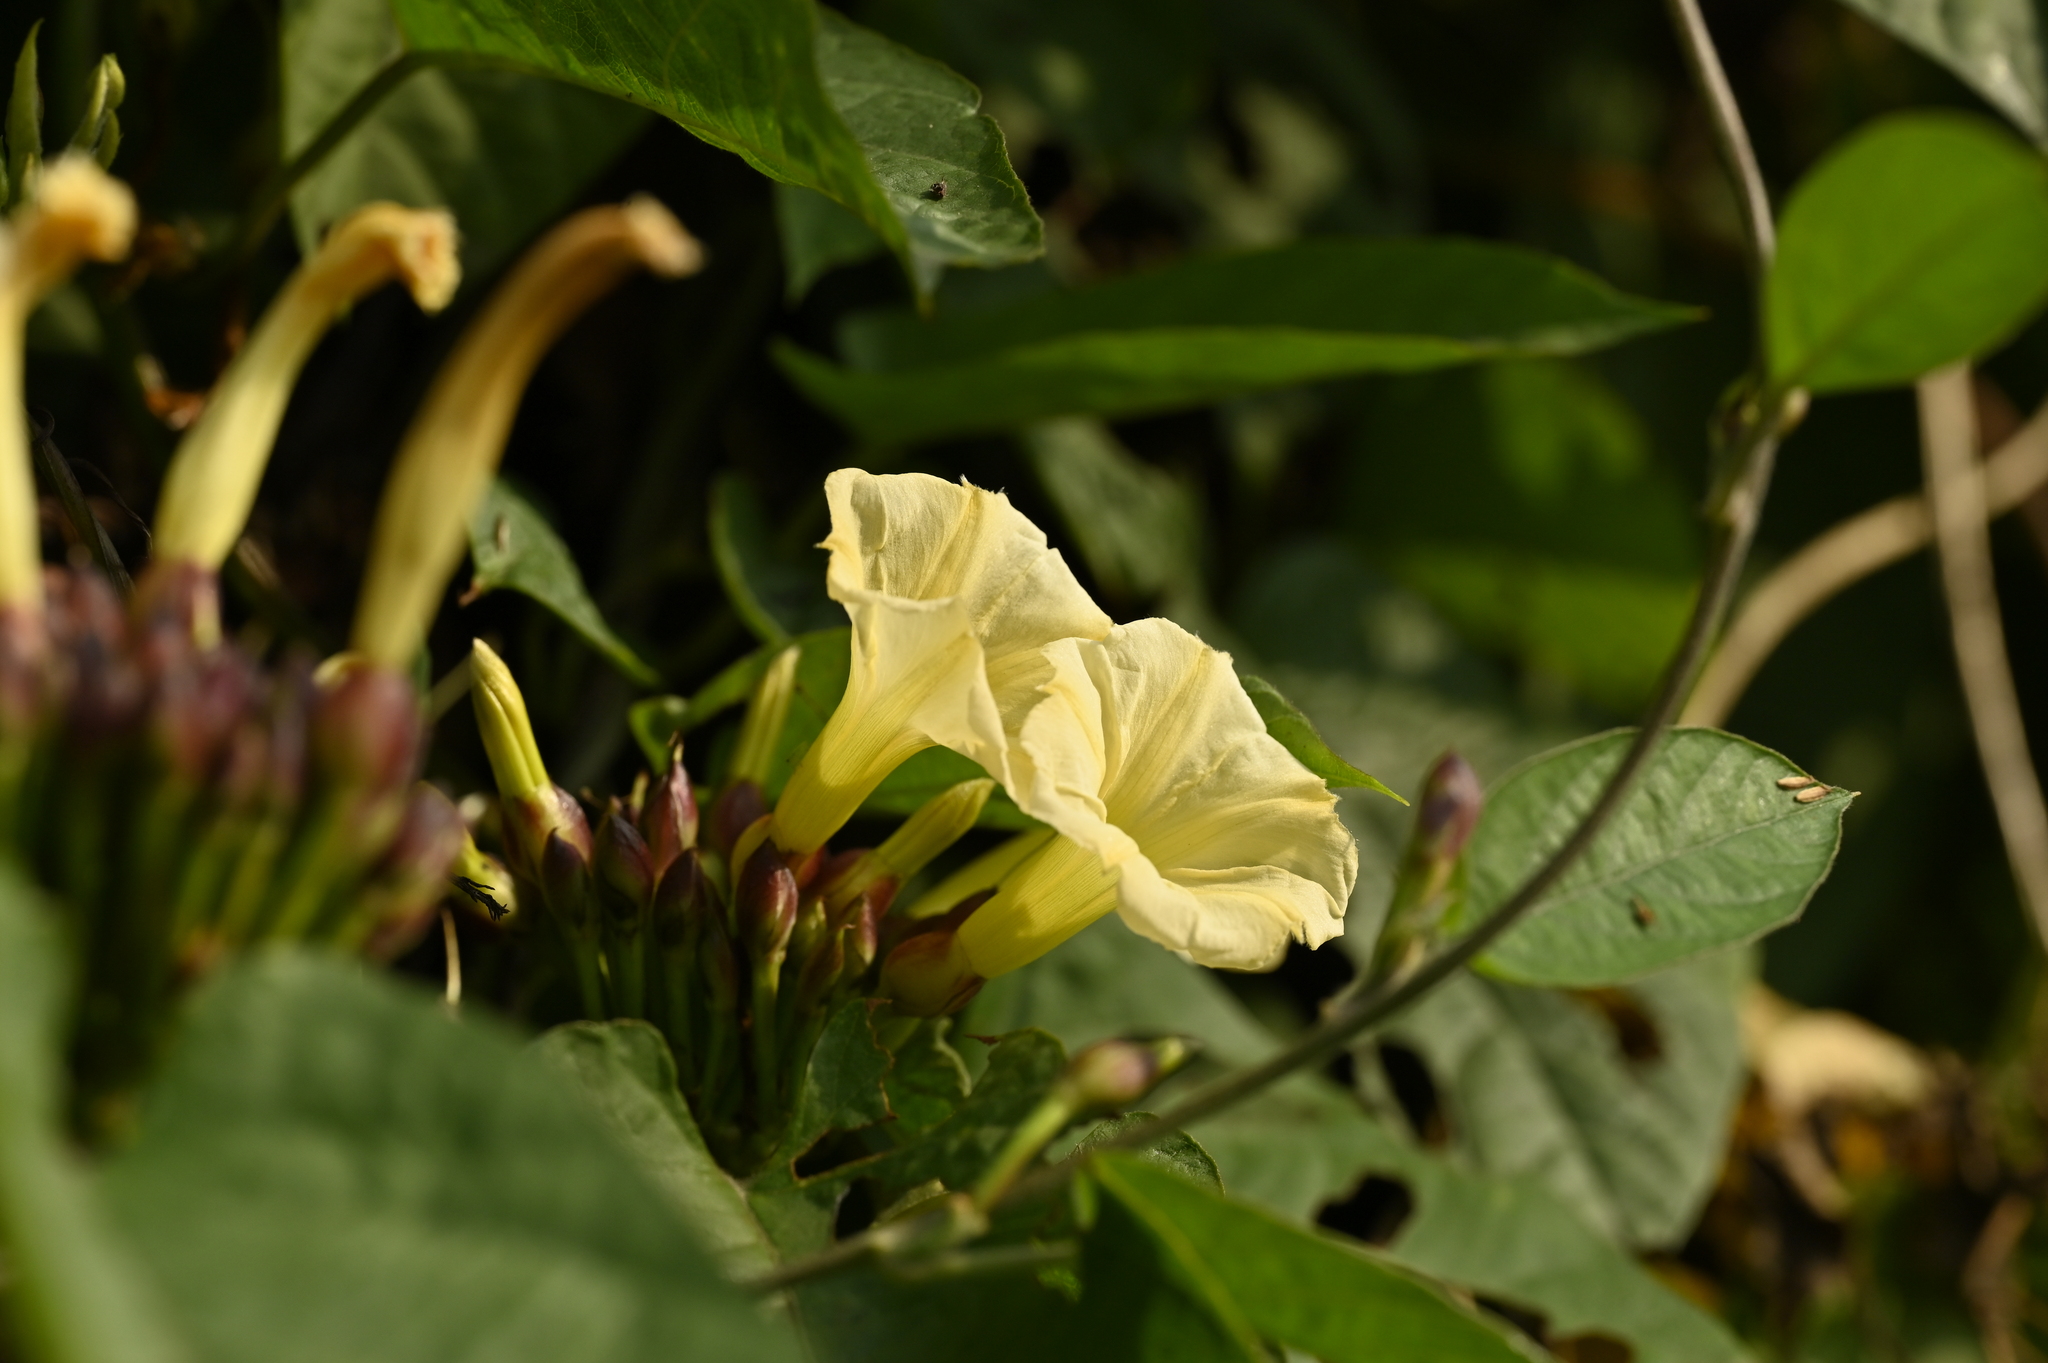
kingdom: Plantae
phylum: Tracheophyta
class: Magnoliopsida
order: Solanales
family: Convolvulaceae
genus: Camonea
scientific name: Camonea pilosa
